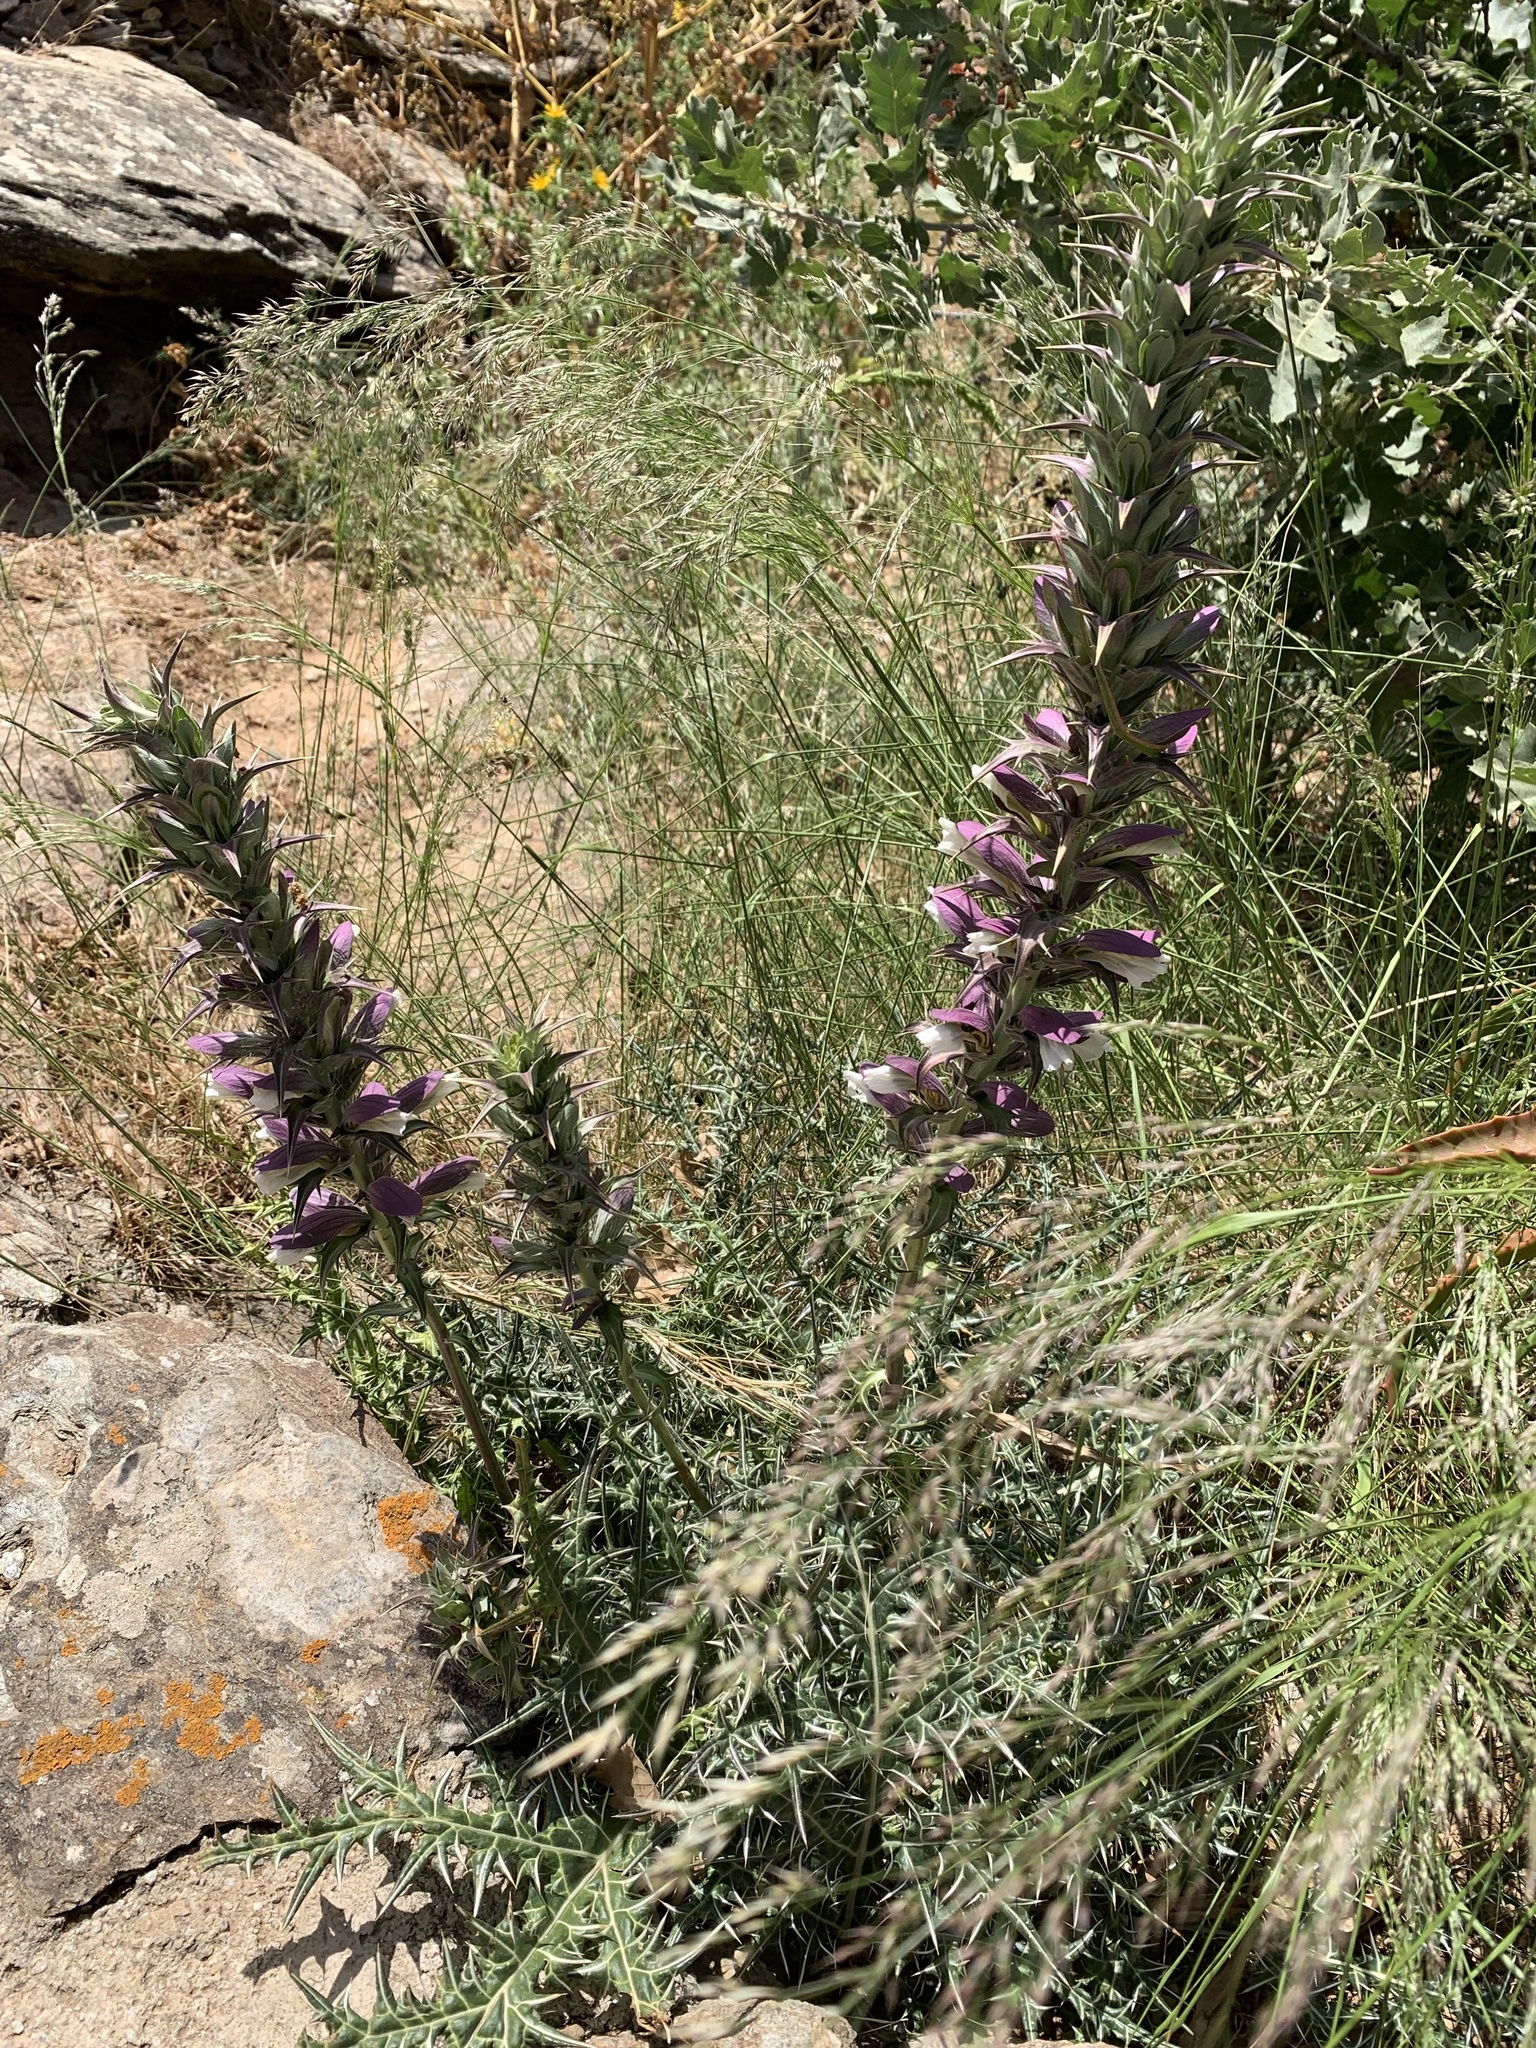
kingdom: Plantae
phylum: Tracheophyta
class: Magnoliopsida
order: Lamiales
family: Acanthaceae
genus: Acanthus
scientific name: Acanthus spinosus
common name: Spiny bear's-breech
